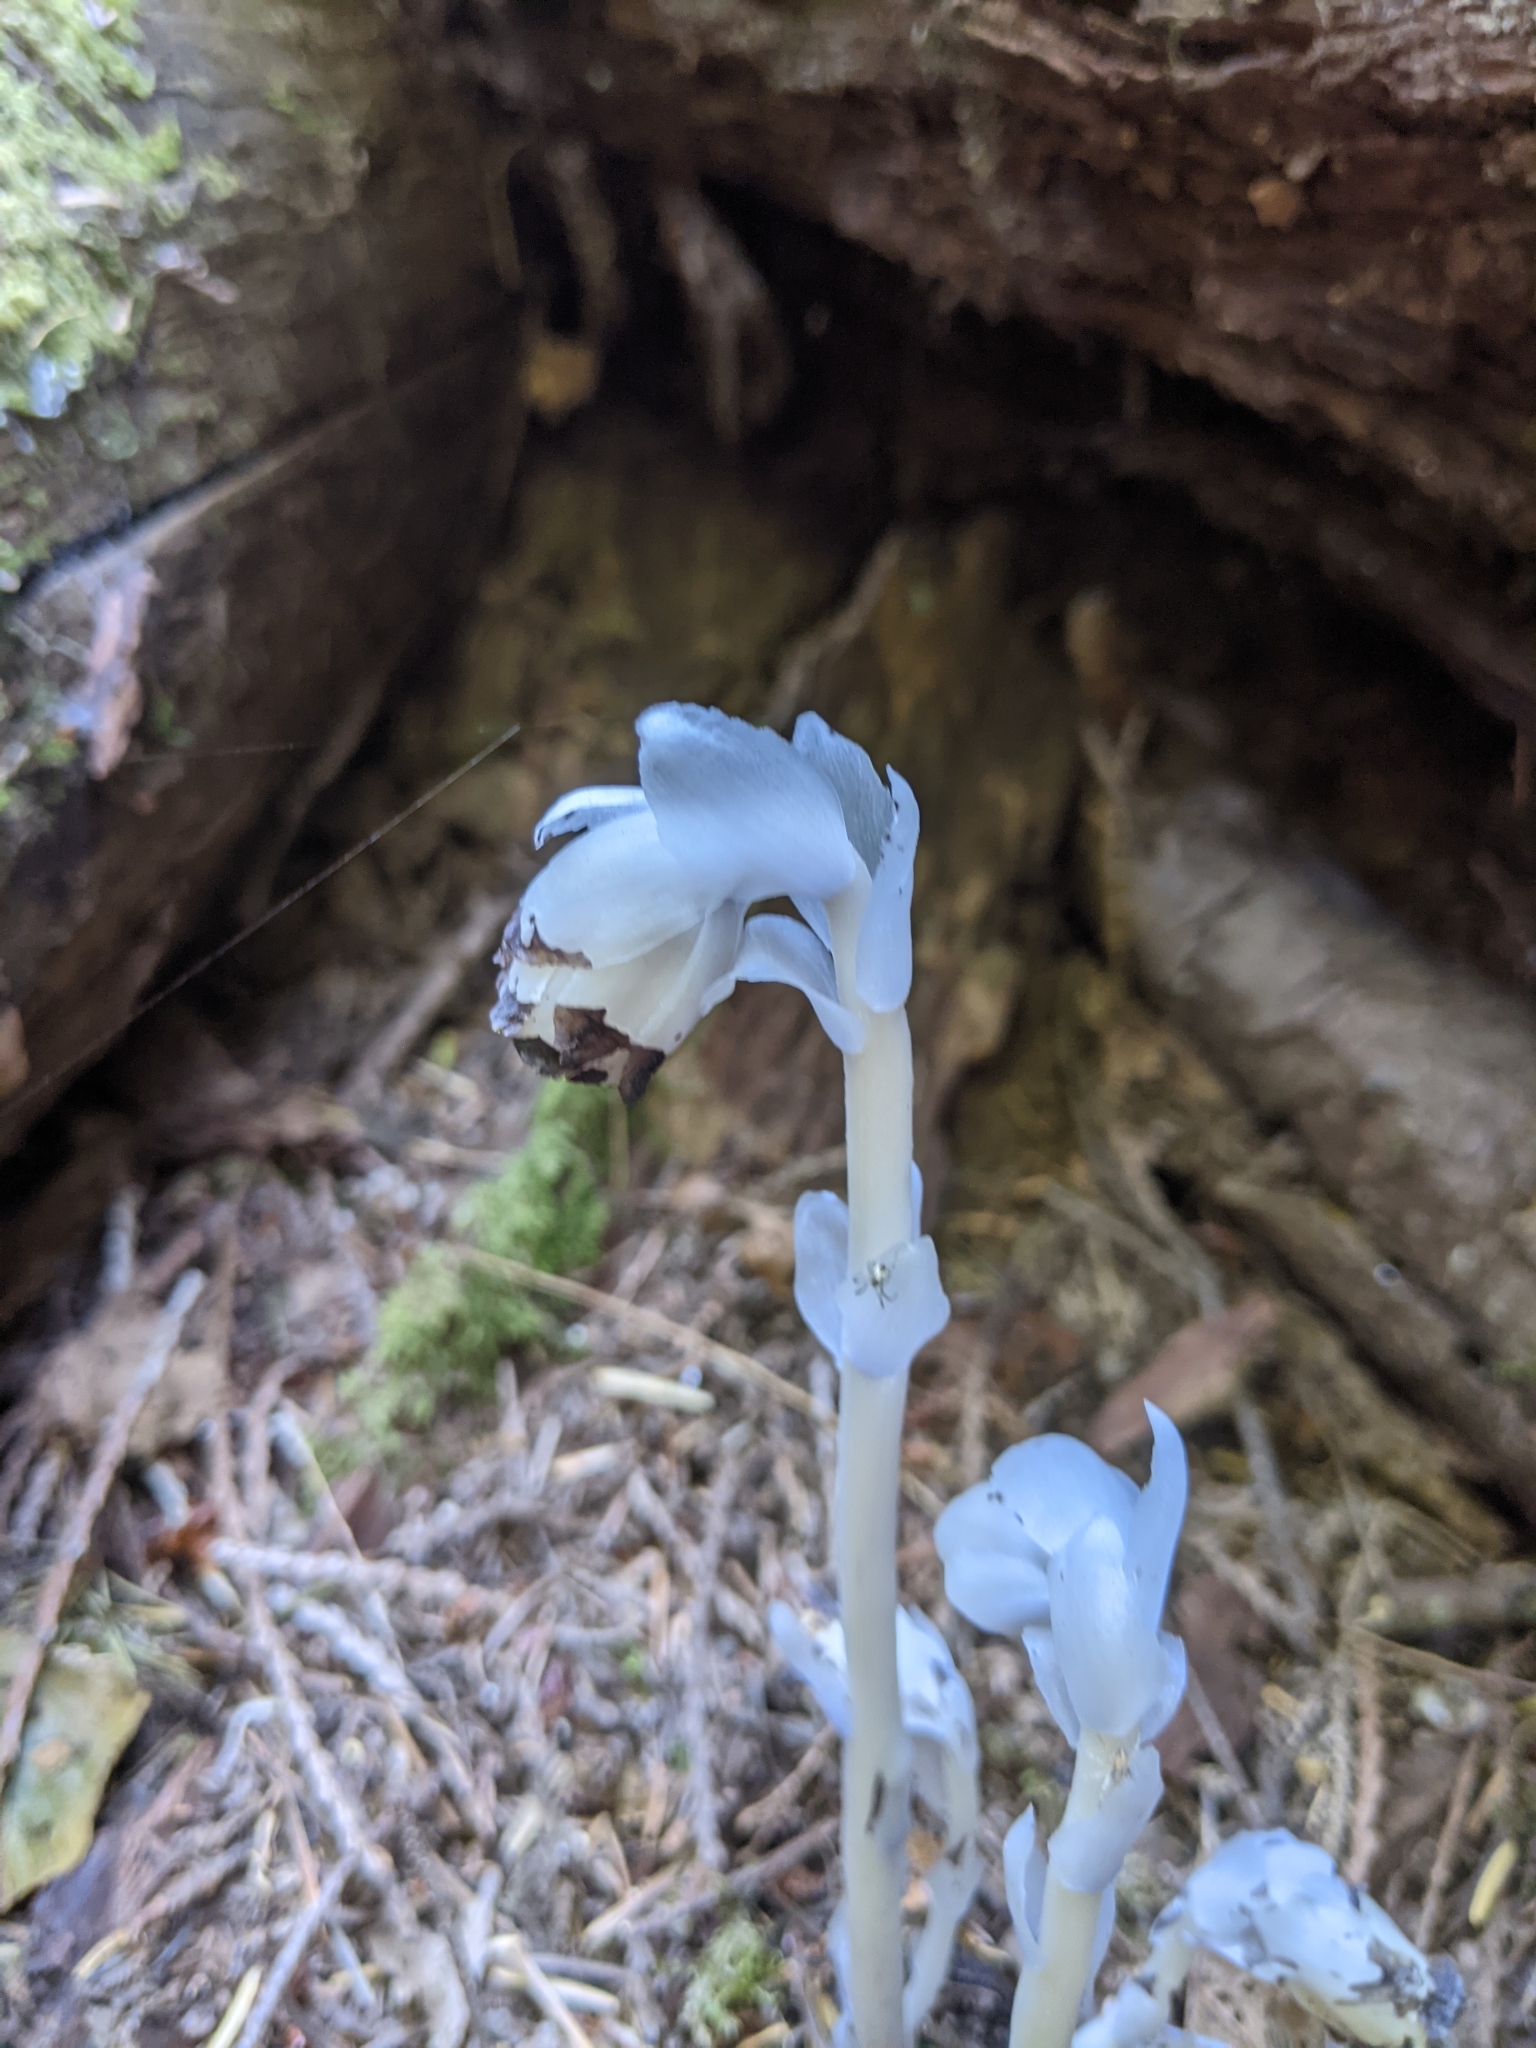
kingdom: Plantae
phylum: Tracheophyta
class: Magnoliopsida
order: Ericales
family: Ericaceae
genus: Monotropa
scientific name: Monotropa uniflora
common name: Convulsion root
